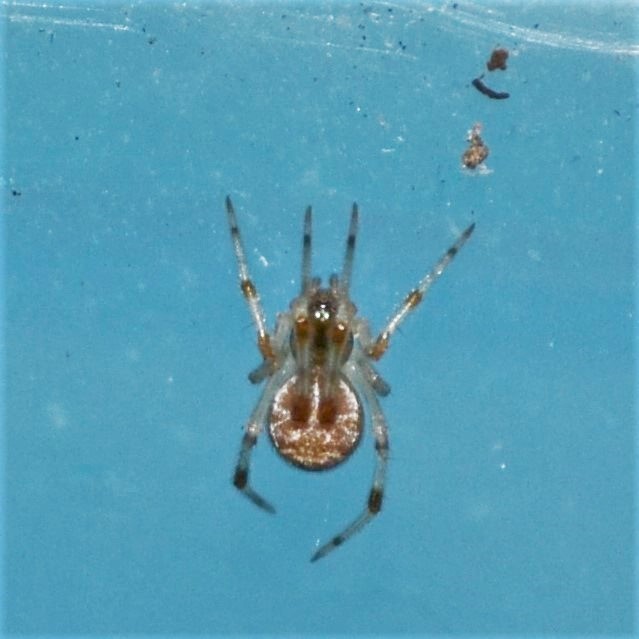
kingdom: Animalia
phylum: Arthropoda
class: Arachnida
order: Araneae
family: Theridiidae
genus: Parasteatoda
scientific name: Parasteatoda tepidariorum
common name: Common house spider
